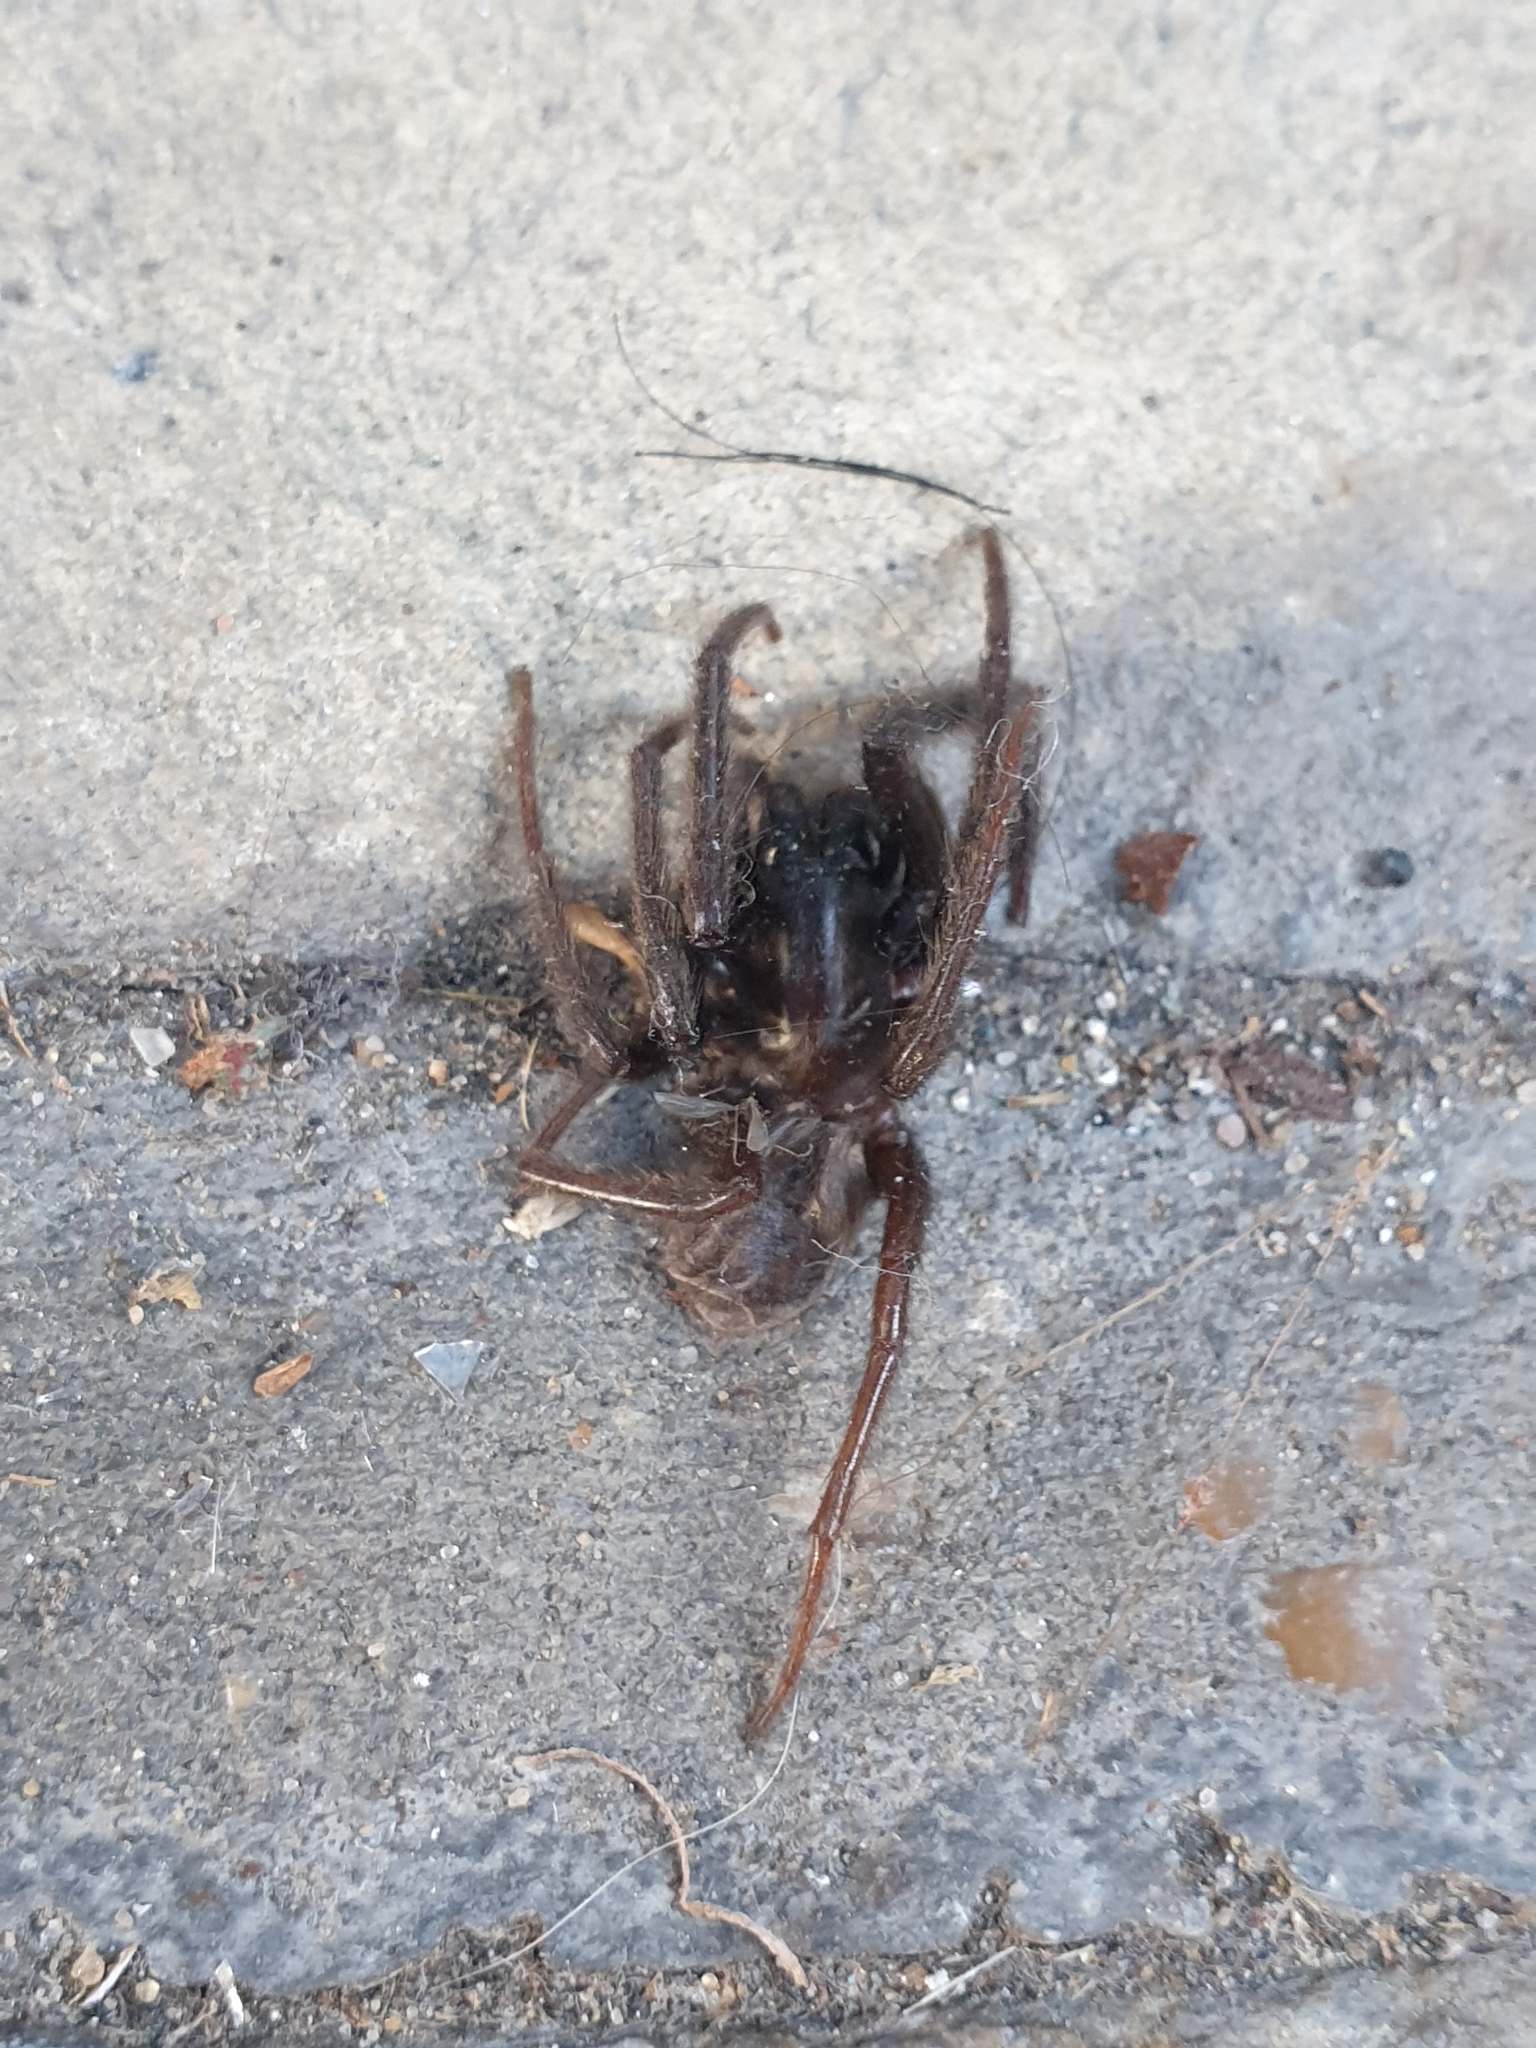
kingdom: Animalia
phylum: Arthropoda
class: Arachnida
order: Araneae
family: Segestriidae
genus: Segestria
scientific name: Segestria florentina
